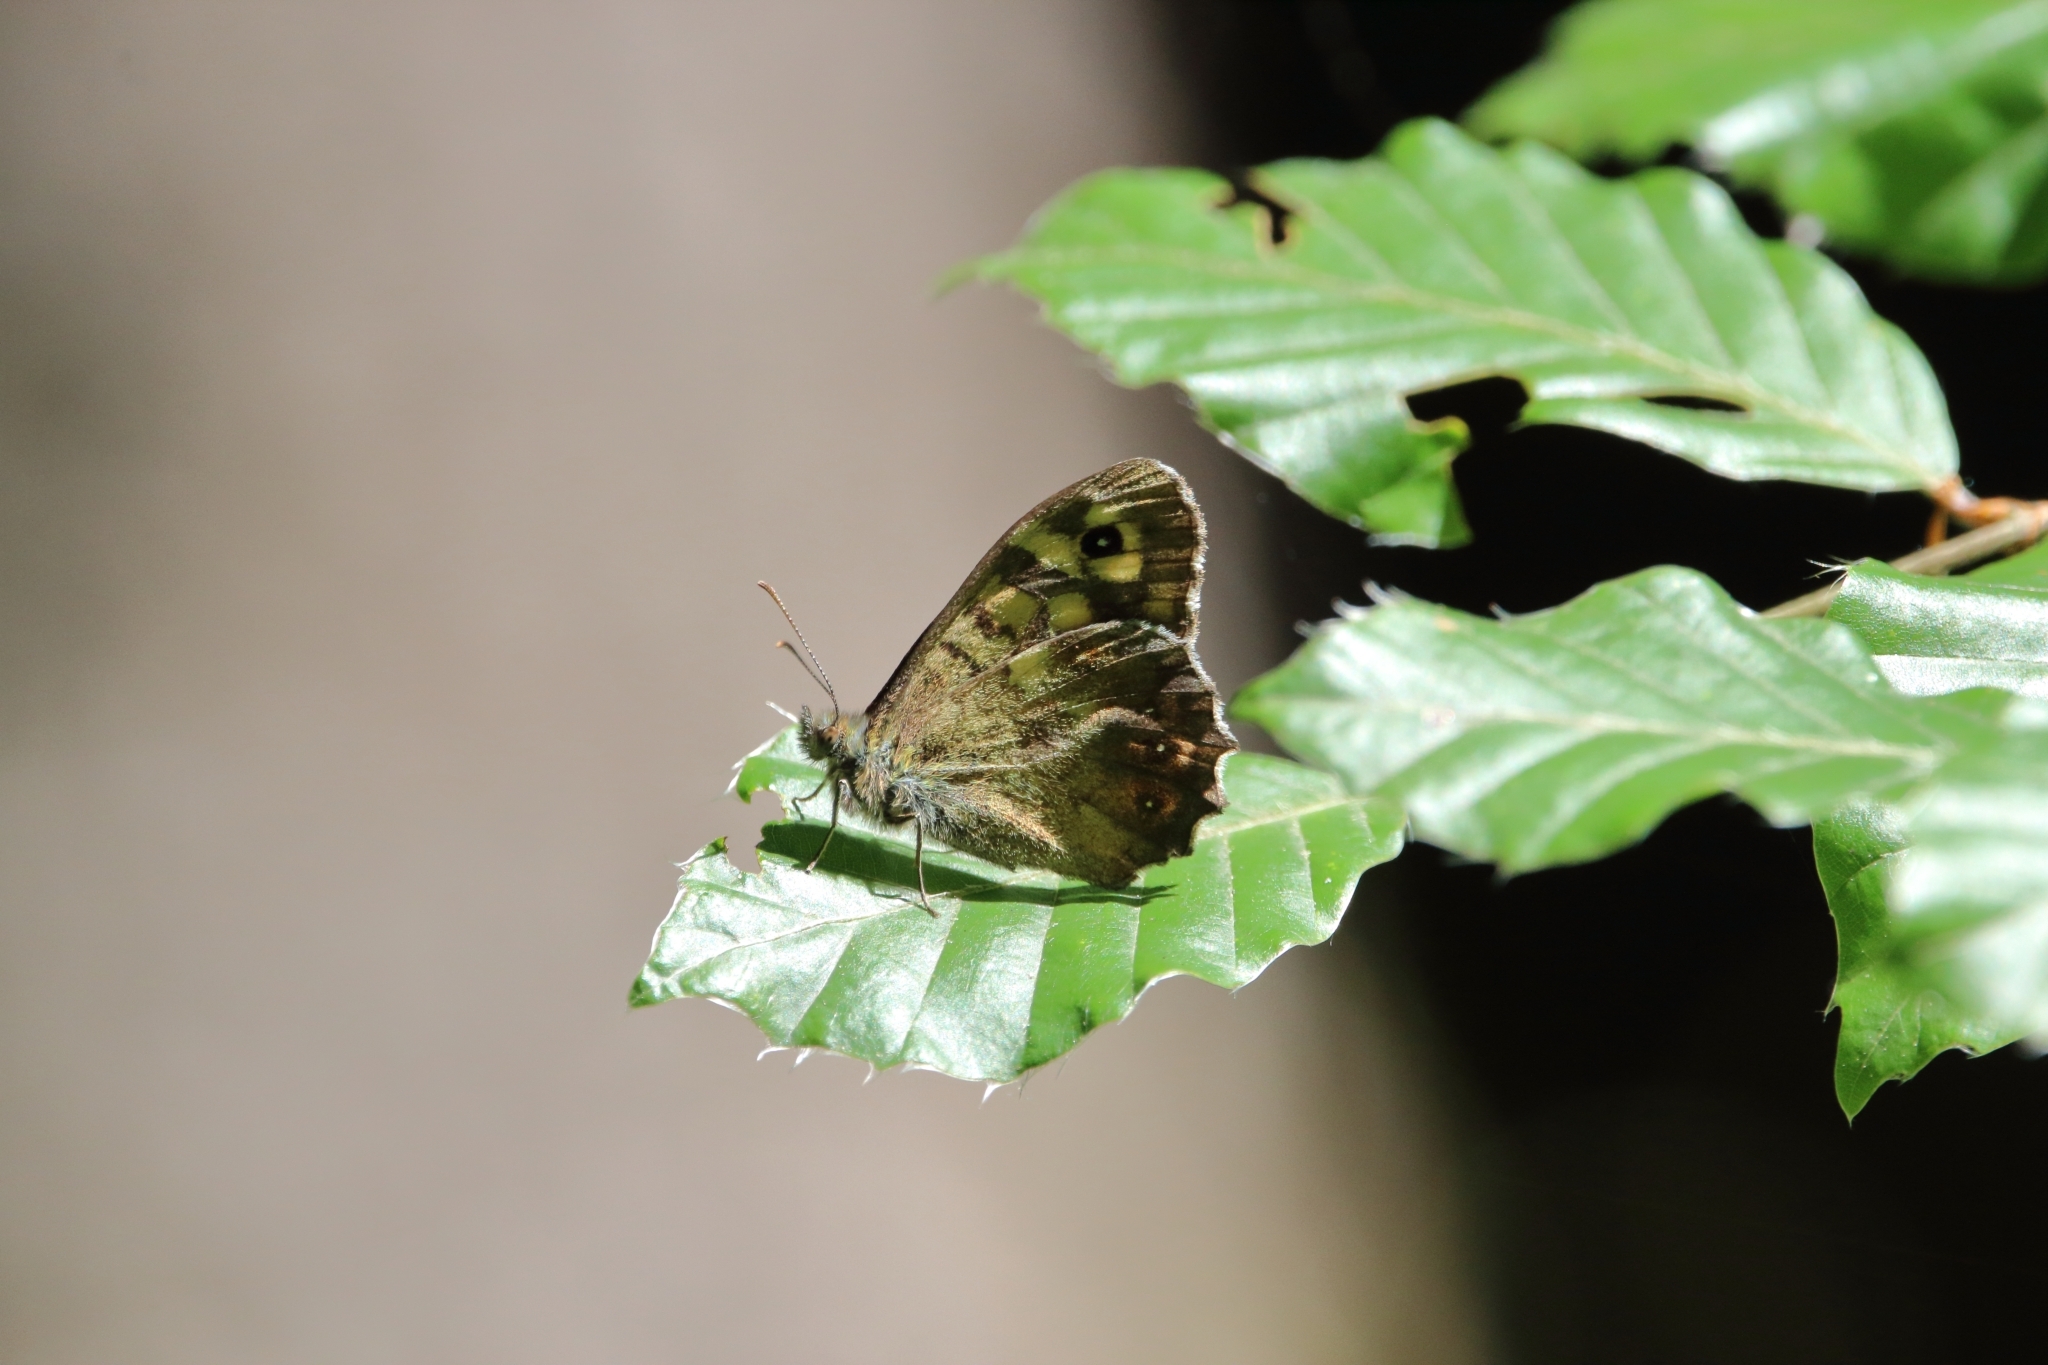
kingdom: Animalia
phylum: Arthropoda
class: Insecta
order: Lepidoptera
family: Nymphalidae
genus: Pararge
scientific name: Pararge aegeria
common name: Speckled wood
